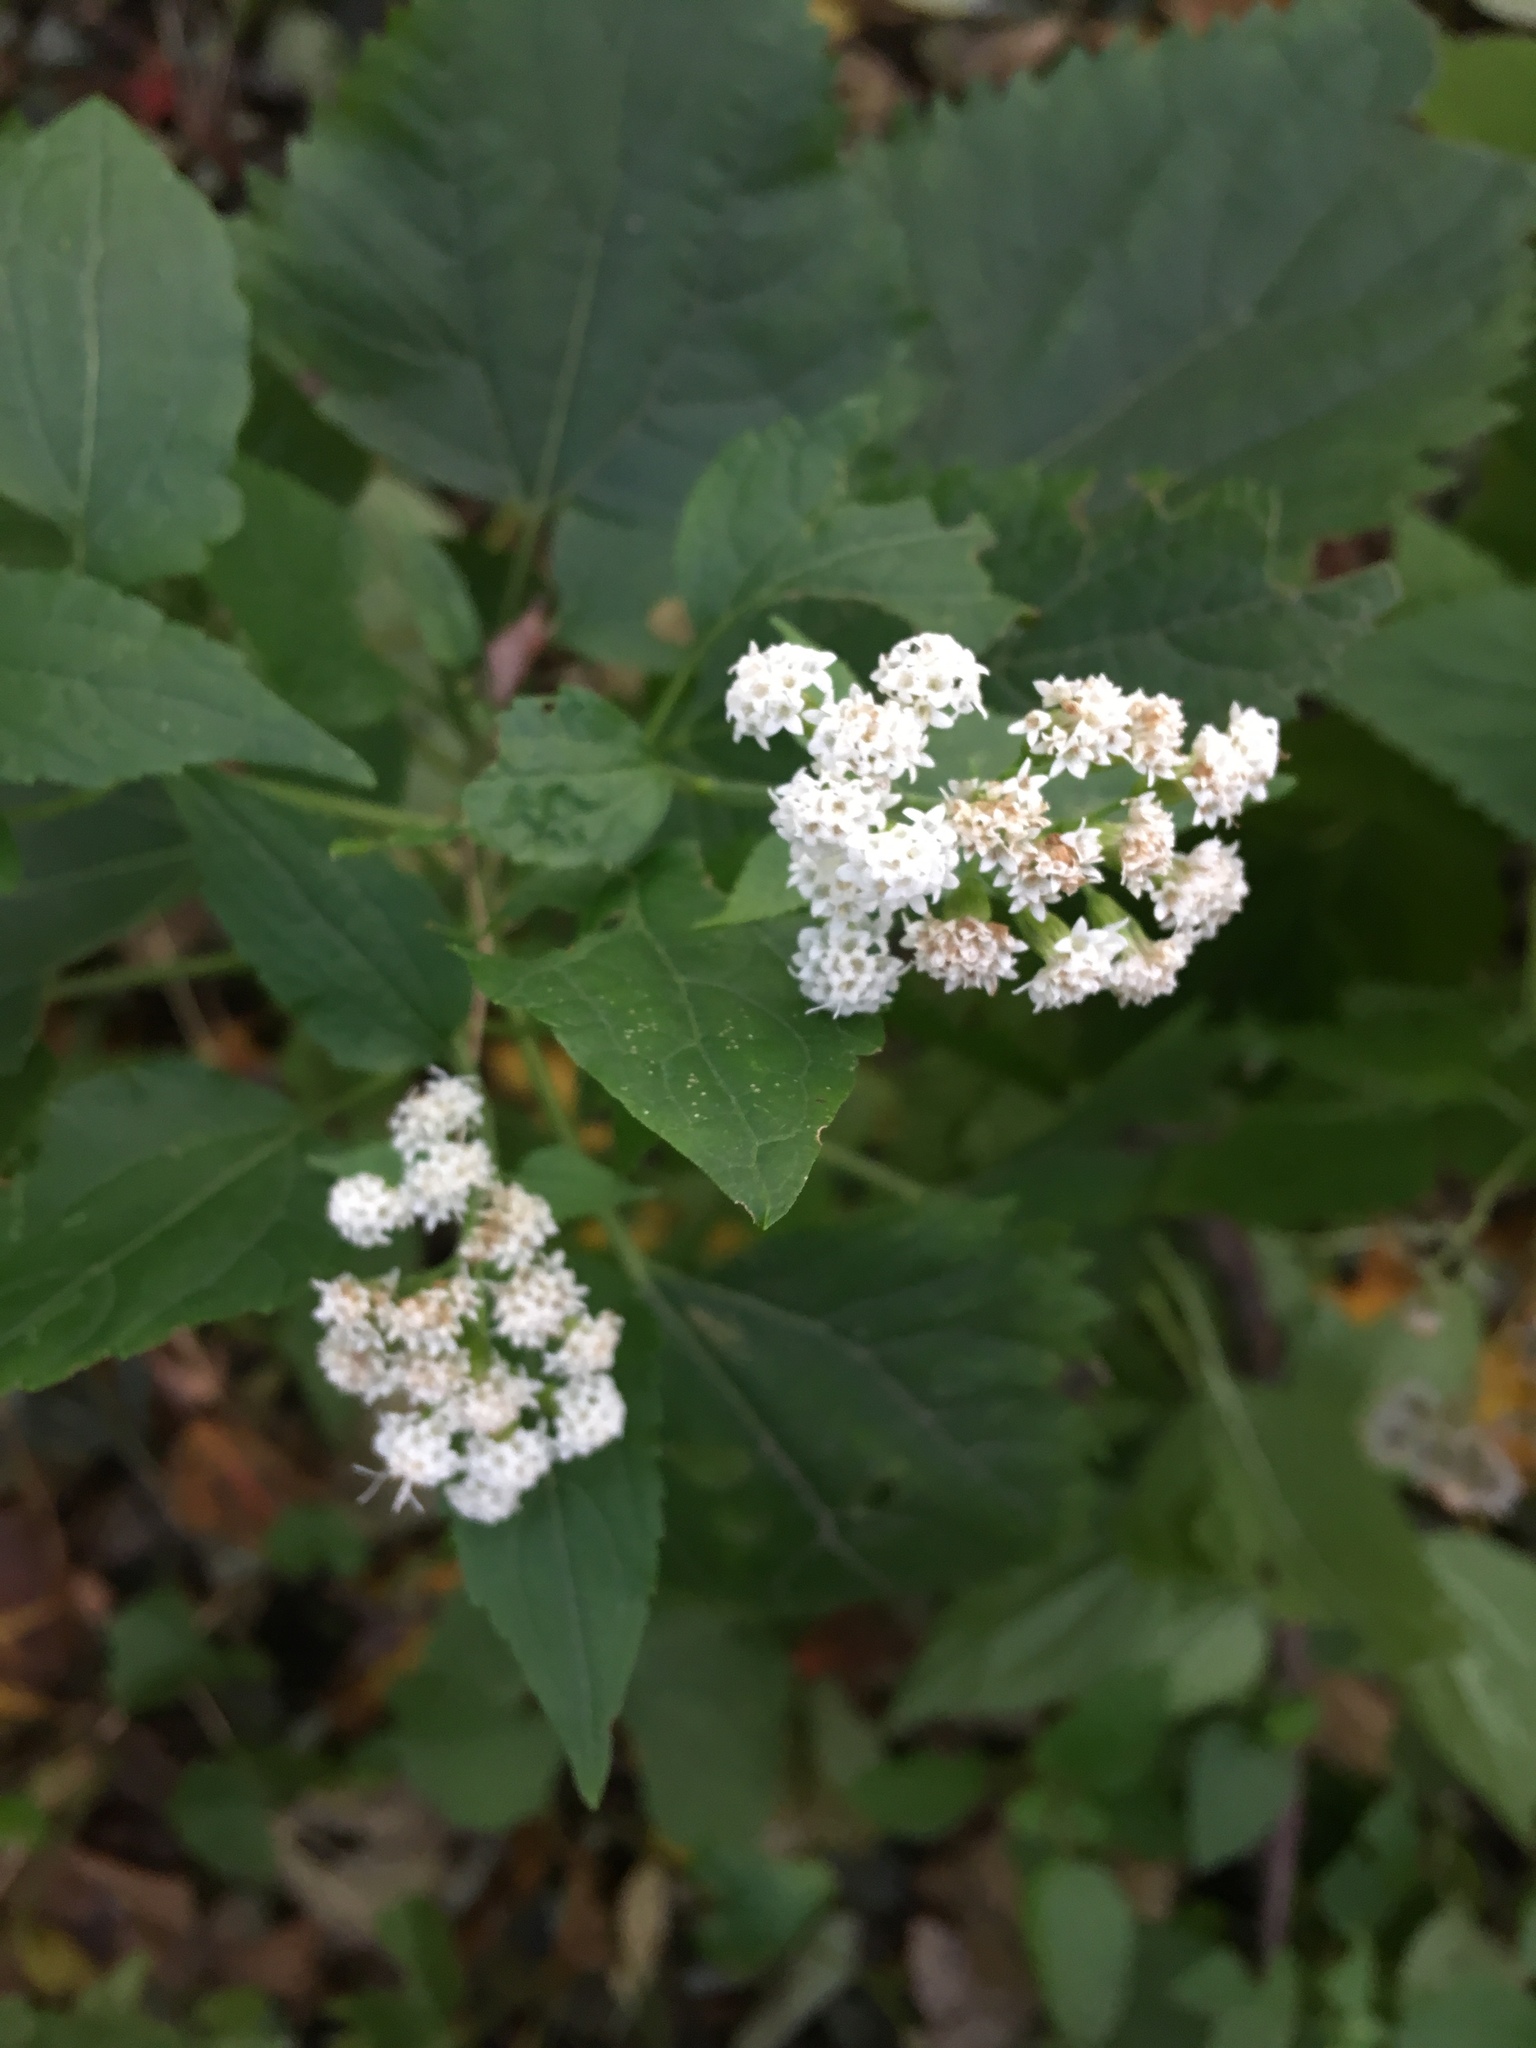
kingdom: Plantae
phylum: Tracheophyta
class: Magnoliopsida
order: Asterales
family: Asteraceae
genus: Ageratina
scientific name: Ageratina altissima
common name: White snakeroot
